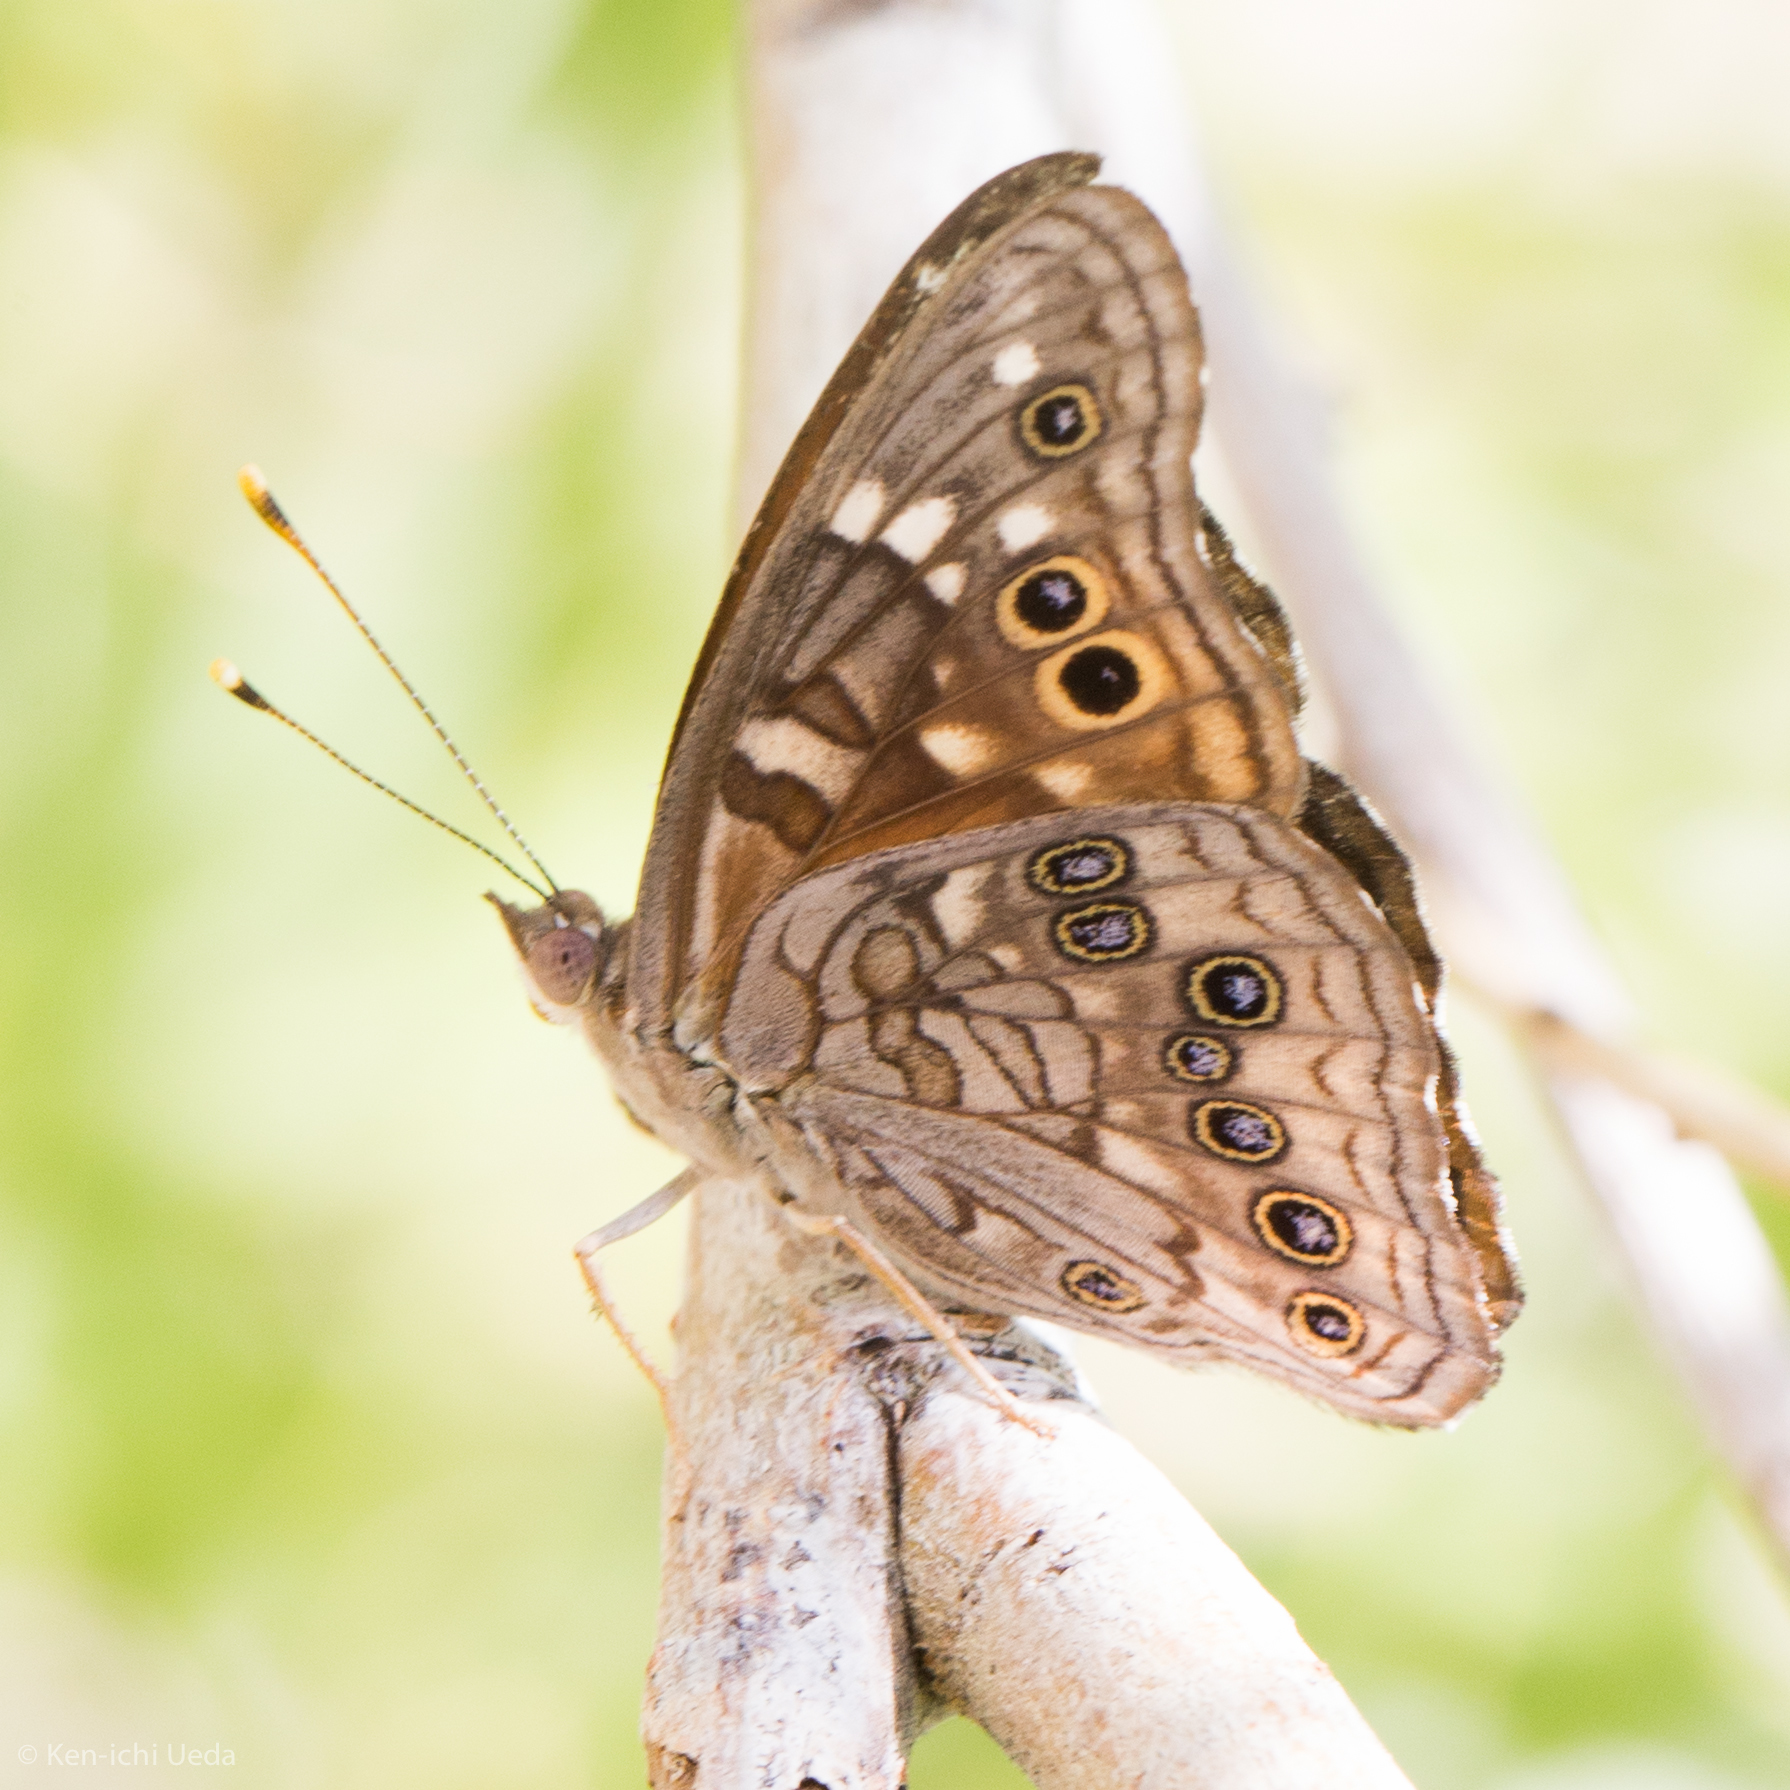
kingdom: Animalia
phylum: Arthropoda
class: Insecta
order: Lepidoptera
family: Nymphalidae
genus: Asterocampa
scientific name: Asterocampa leilia
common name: Empress leilia
